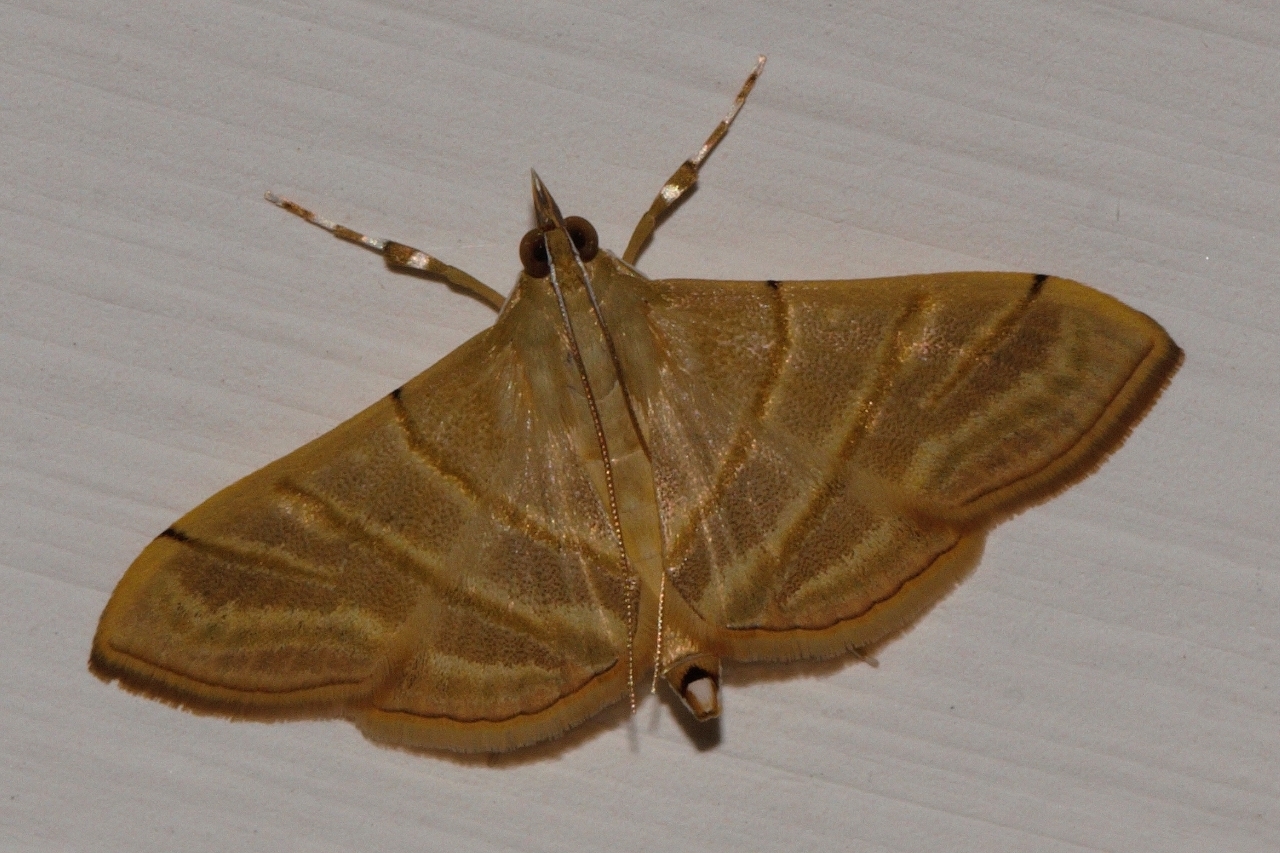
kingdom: Animalia
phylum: Arthropoda
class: Insecta
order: Lepidoptera
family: Crambidae
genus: Pagyda
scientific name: Pagyda salvalis
